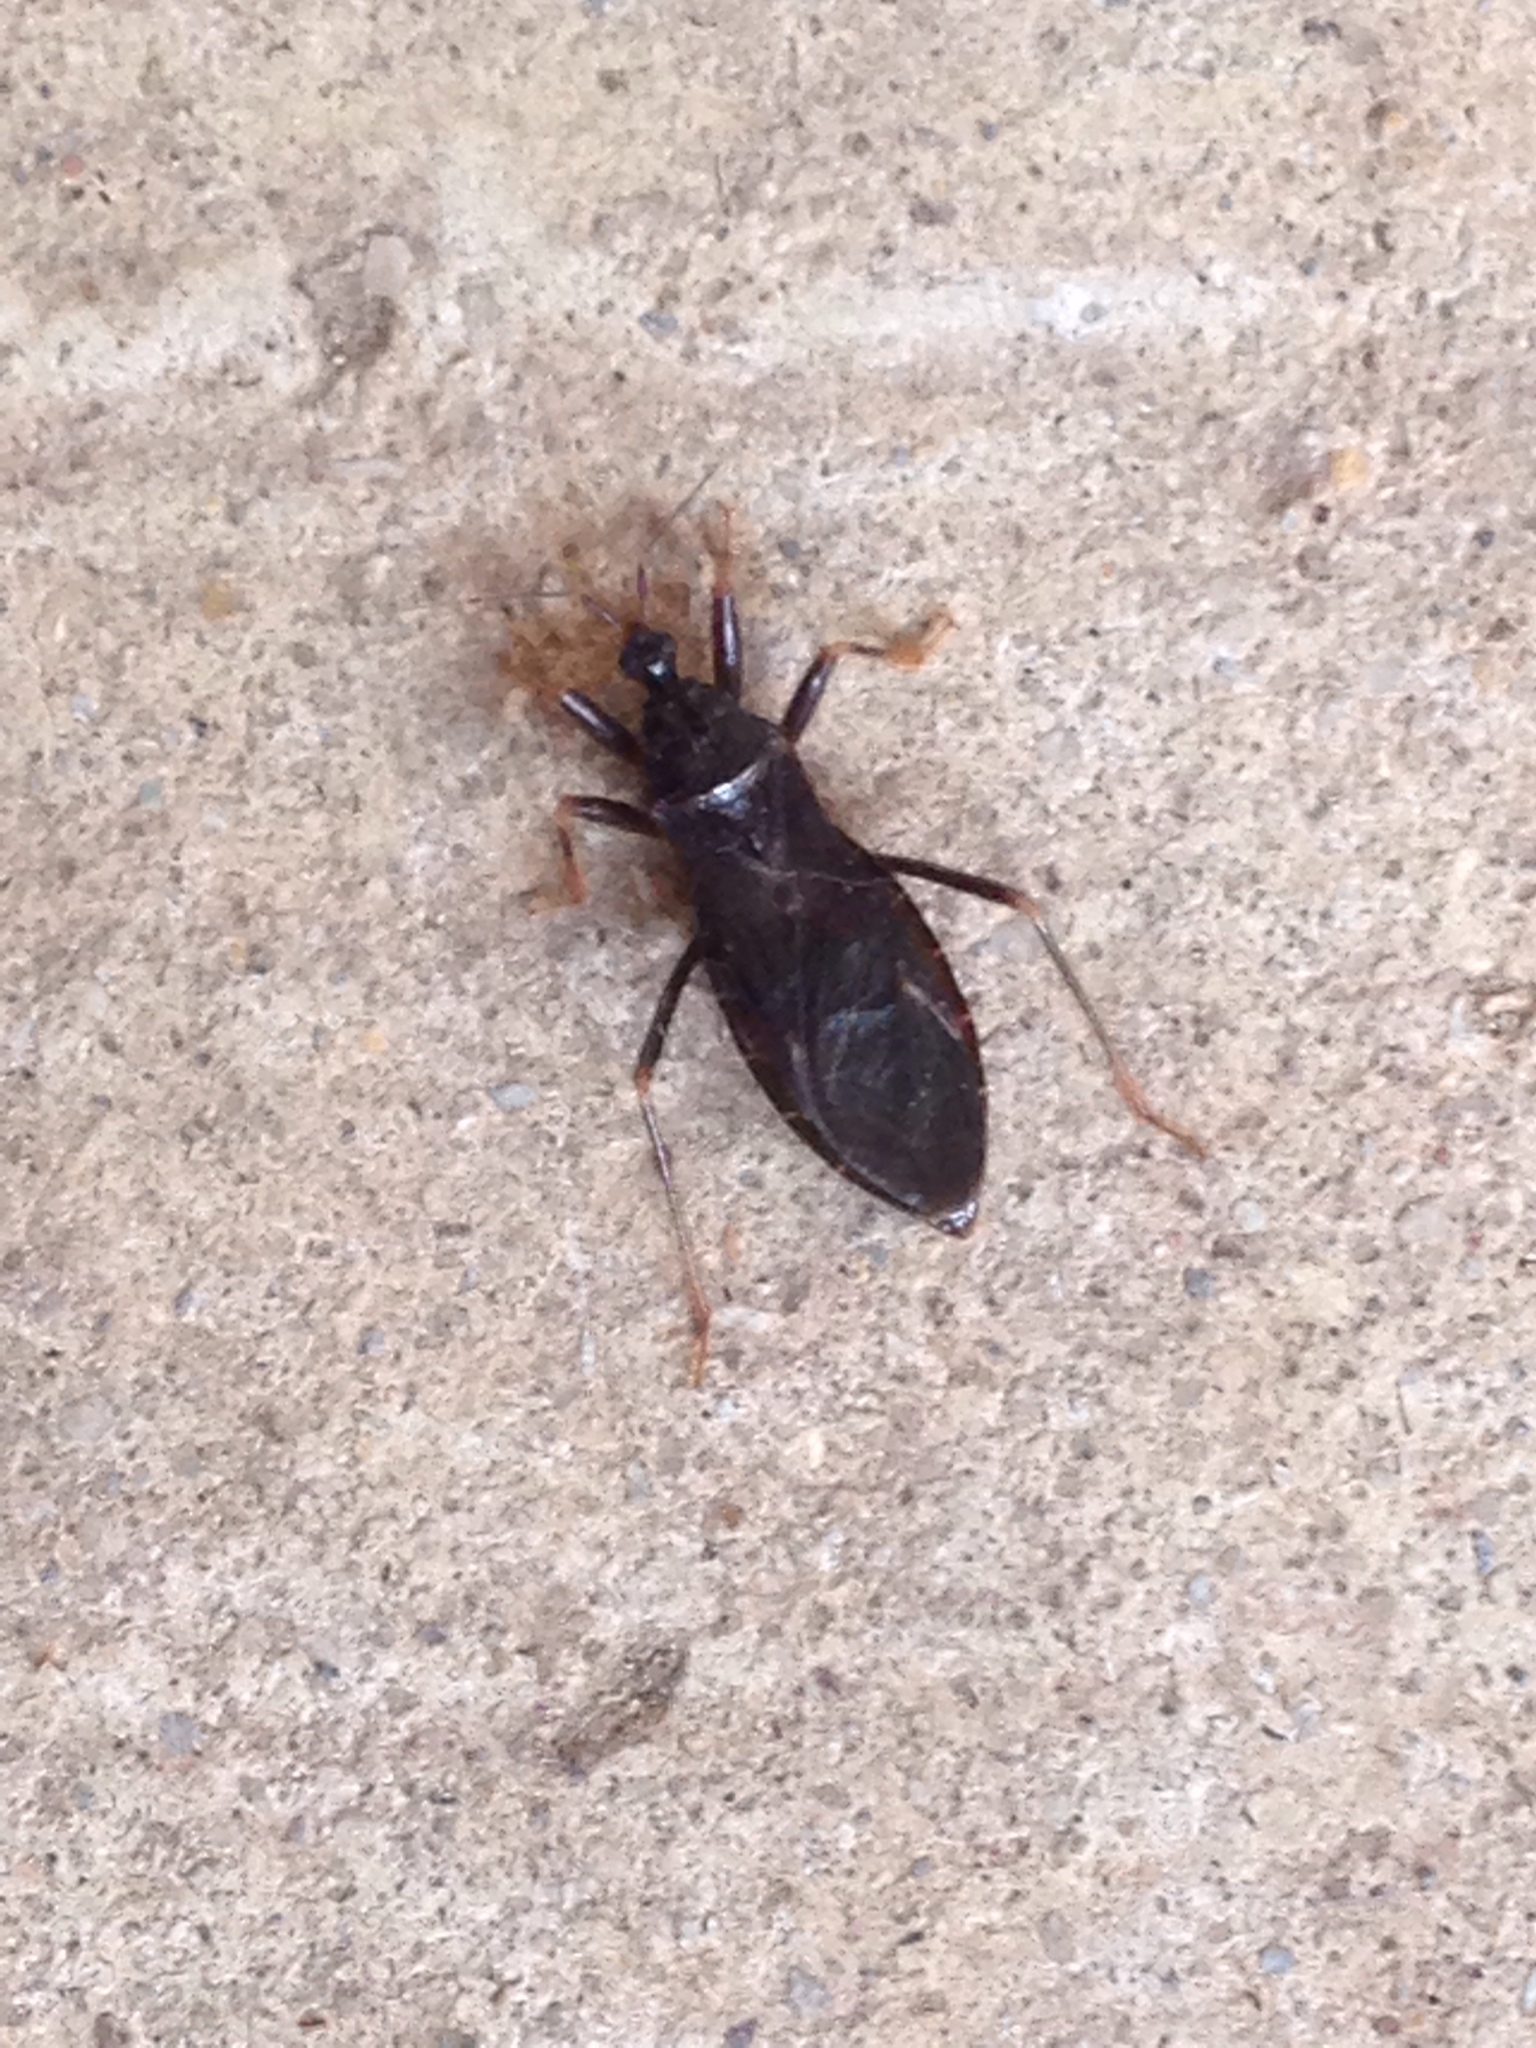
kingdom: Animalia
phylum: Arthropoda
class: Insecta
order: Hemiptera
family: Reduviidae
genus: Reduvius
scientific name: Reduvius personatus
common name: Masked hunter
